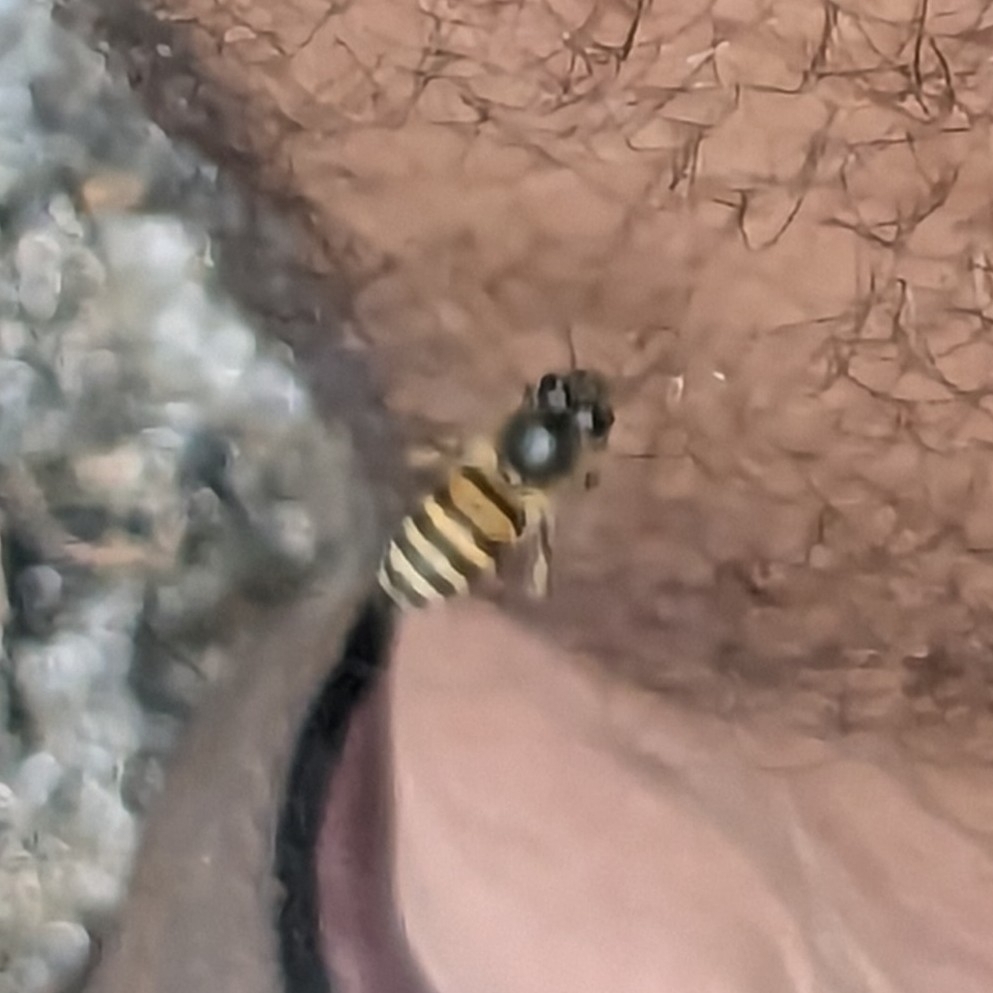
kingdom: Animalia
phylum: Arthropoda
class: Insecta
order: Hymenoptera
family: Apidae
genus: Apis
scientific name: Apis cerana
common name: Honey bee
